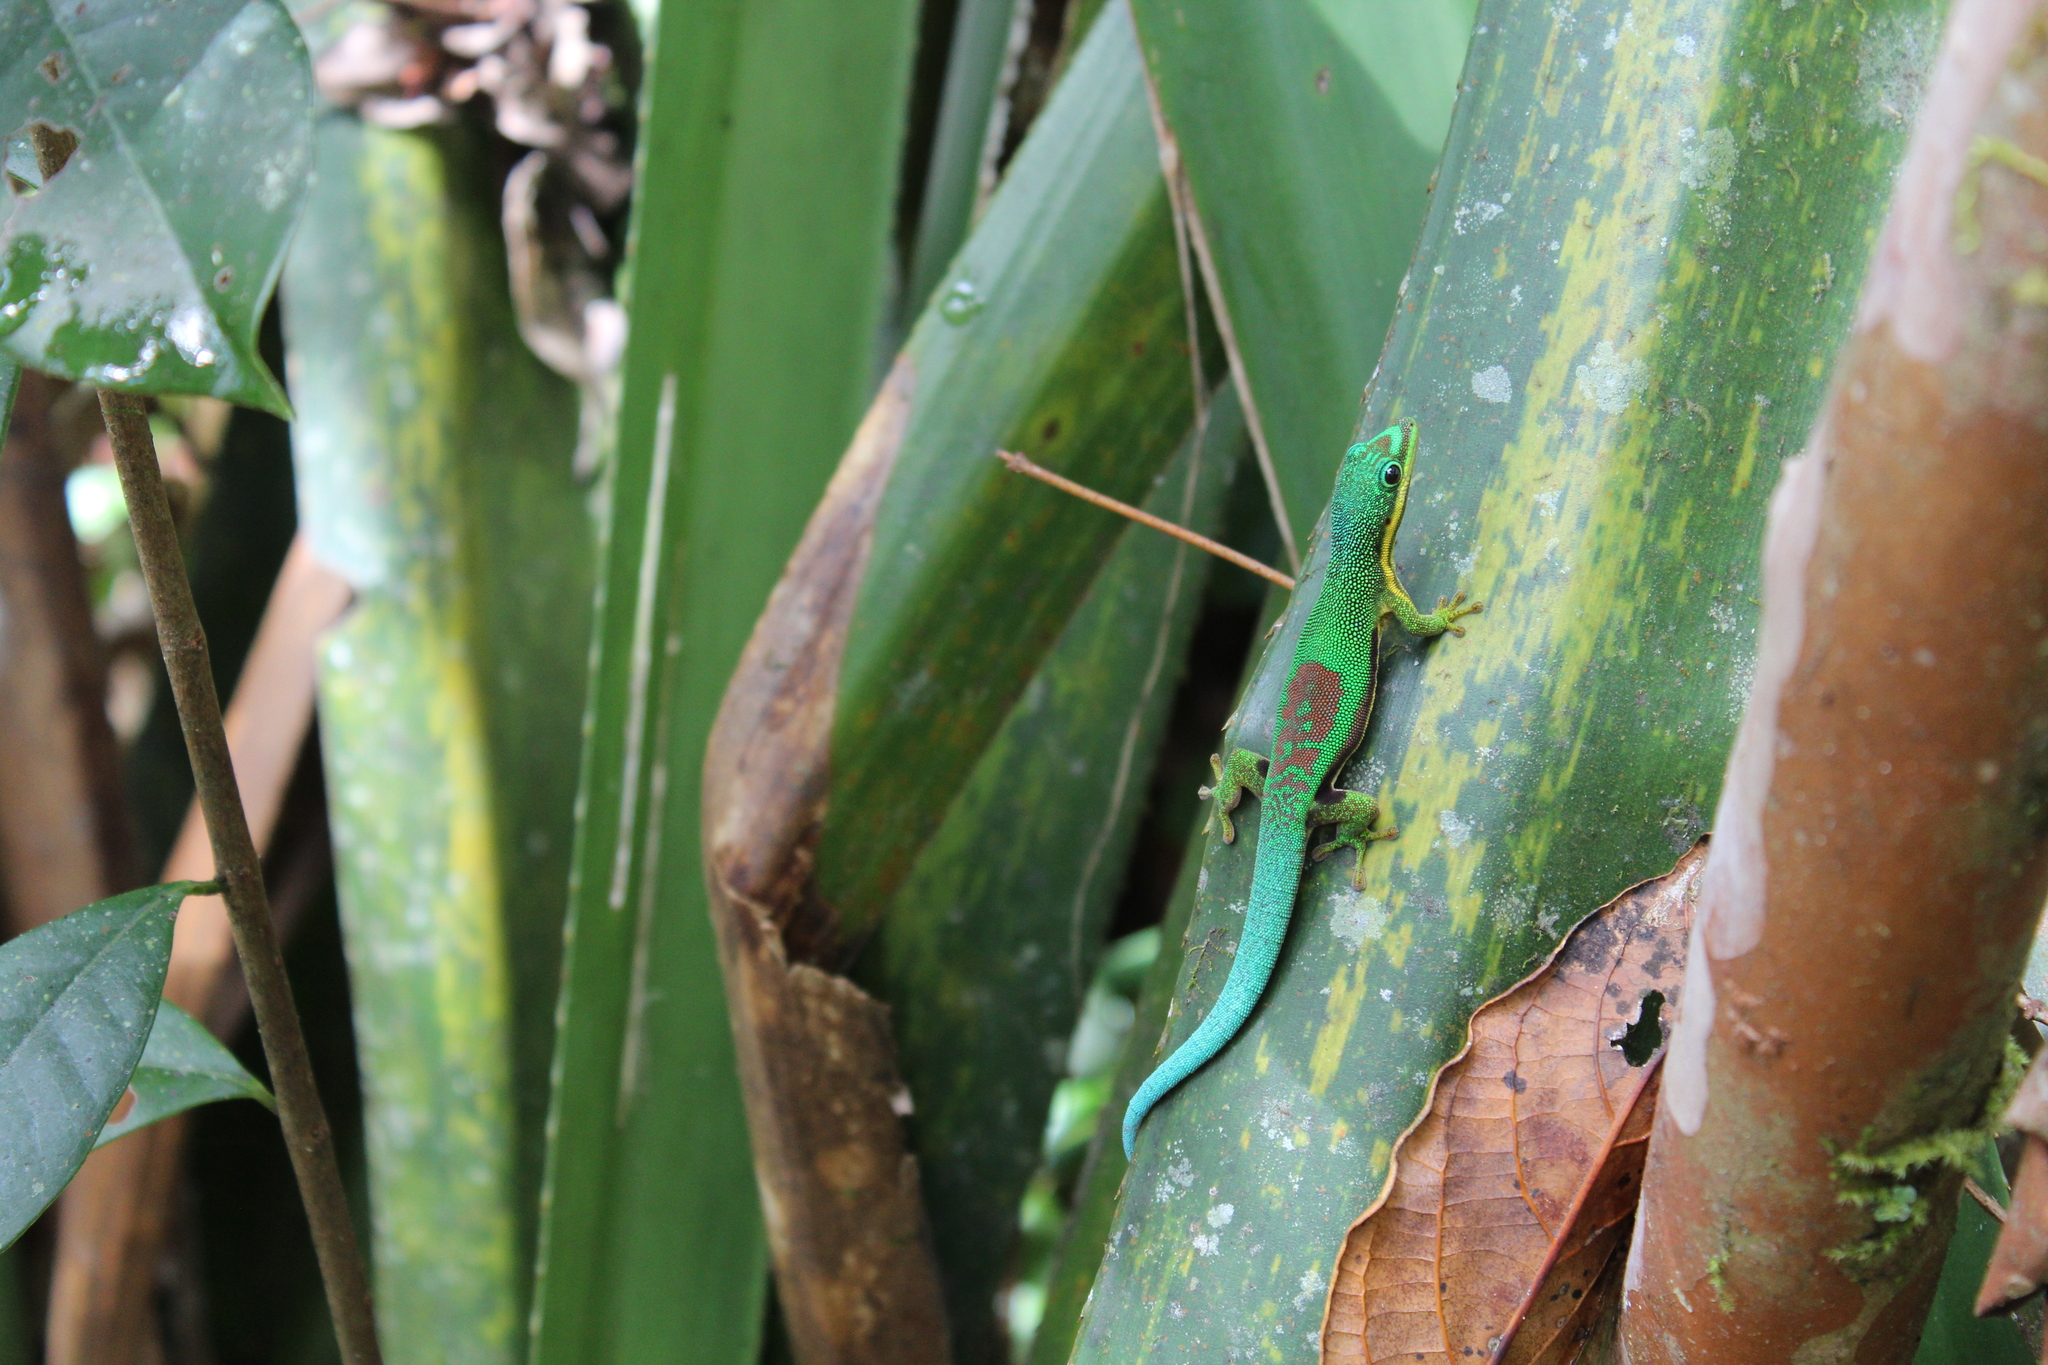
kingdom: Animalia
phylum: Chordata
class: Squamata
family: Gekkonidae
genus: Phelsuma
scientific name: Phelsuma lineata
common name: Lined day gecko
